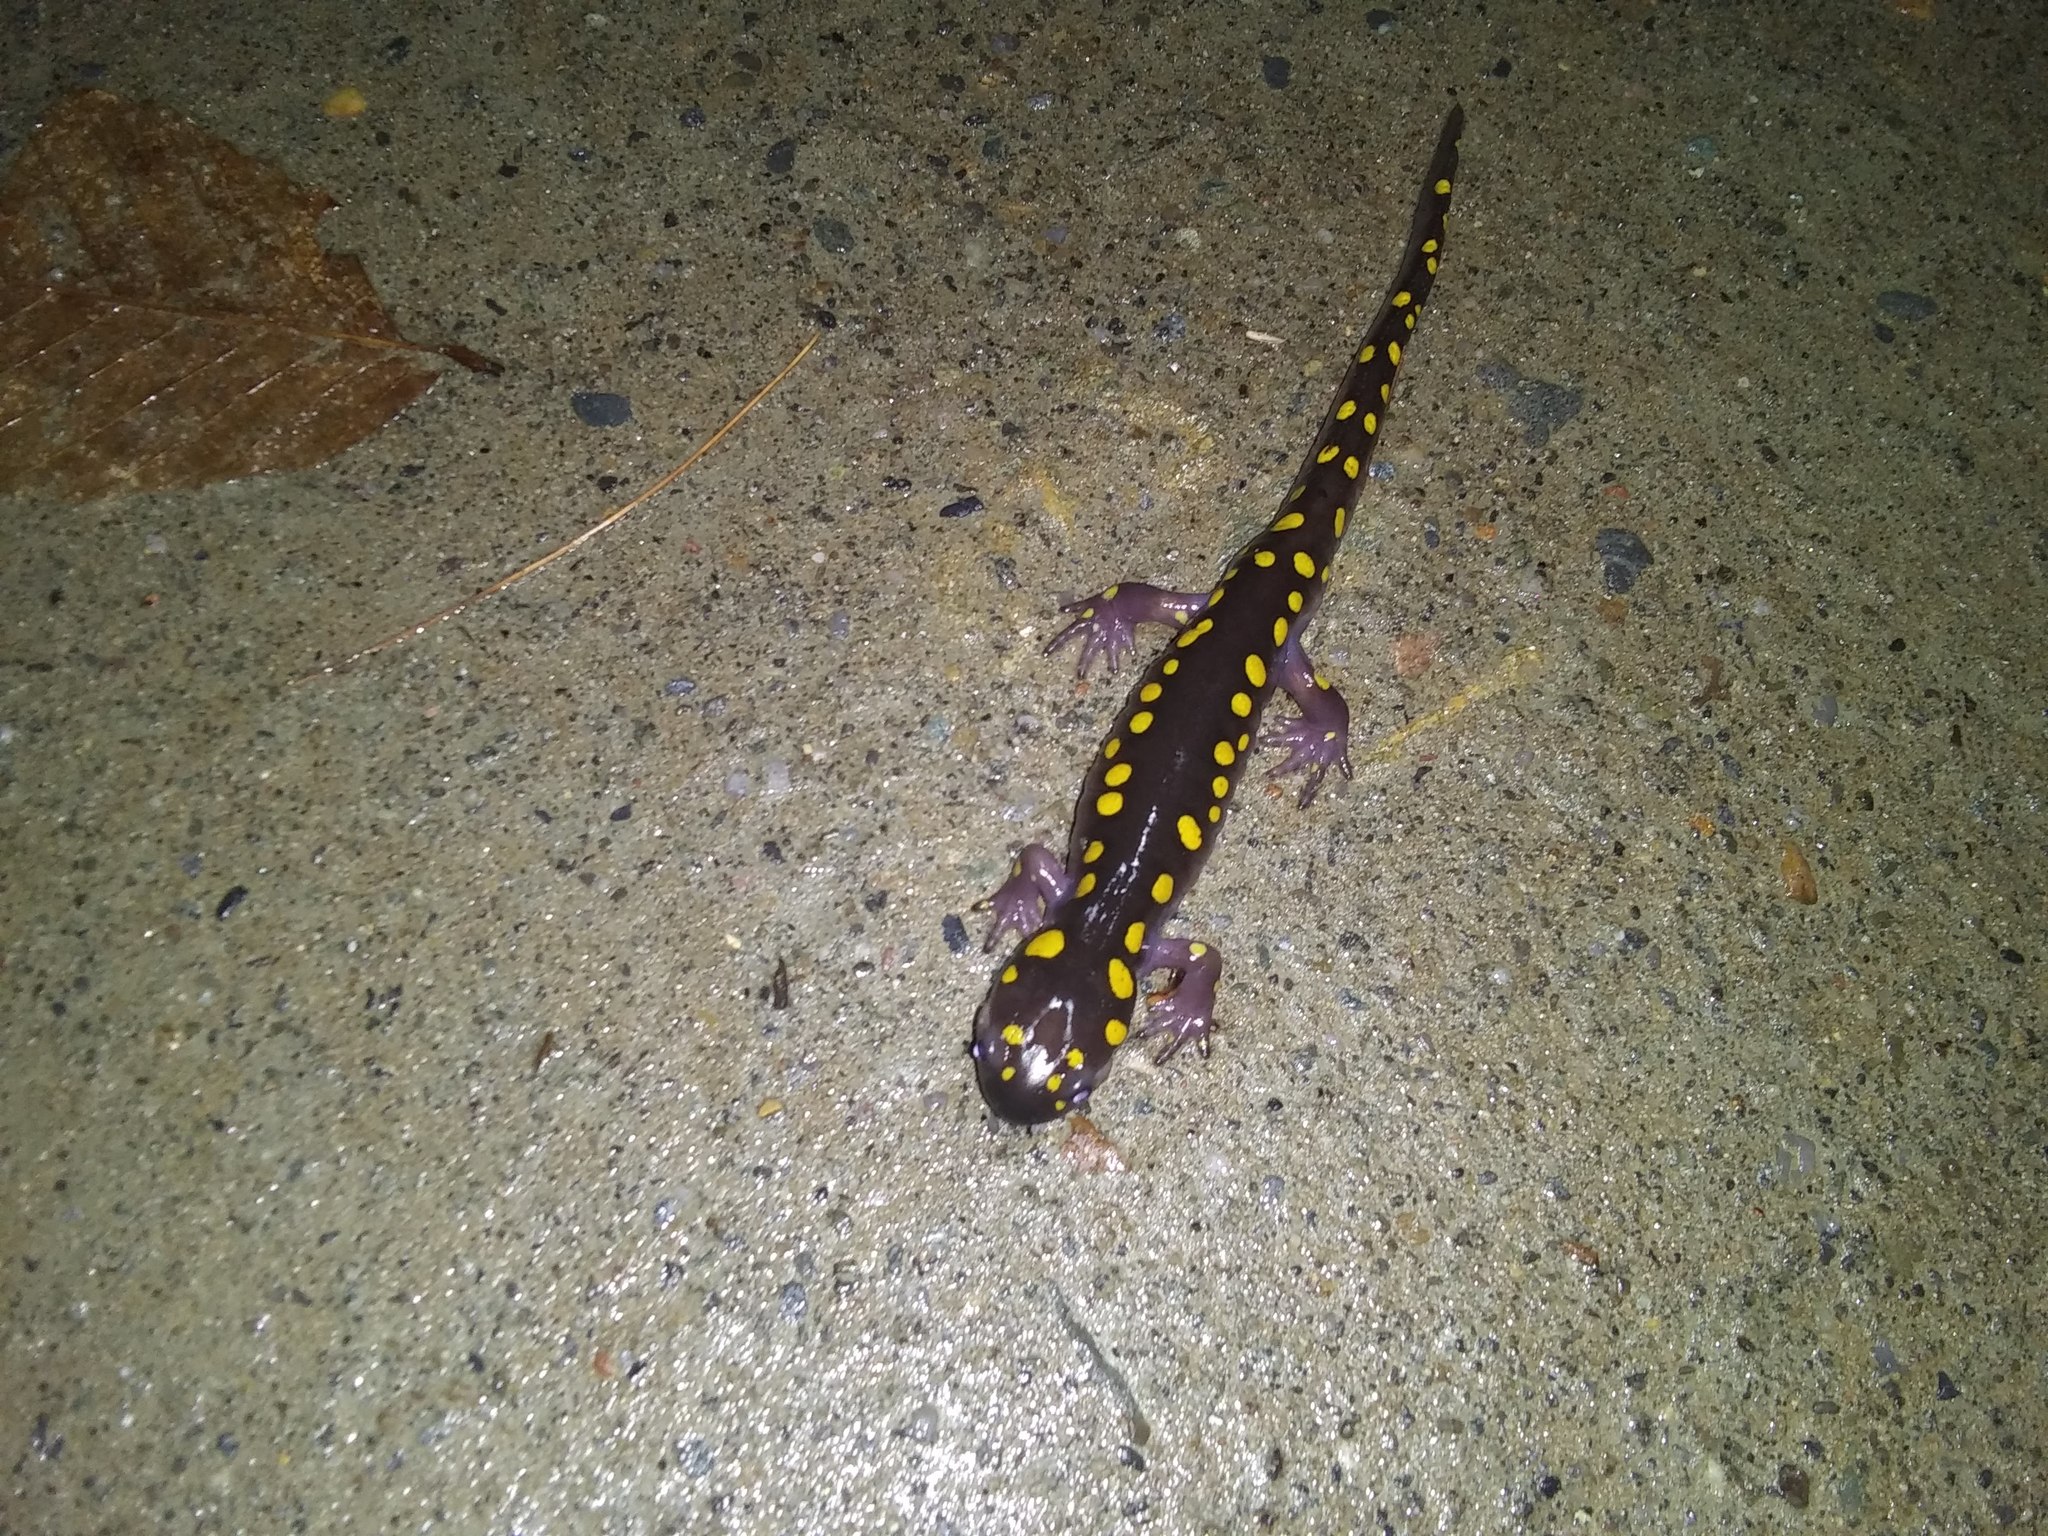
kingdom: Animalia
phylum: Chordata
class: Amphibia
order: Caudata
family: Ambystomatidae
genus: Ambystoma
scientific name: Ambystoma maculatum
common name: Spotted salamander
